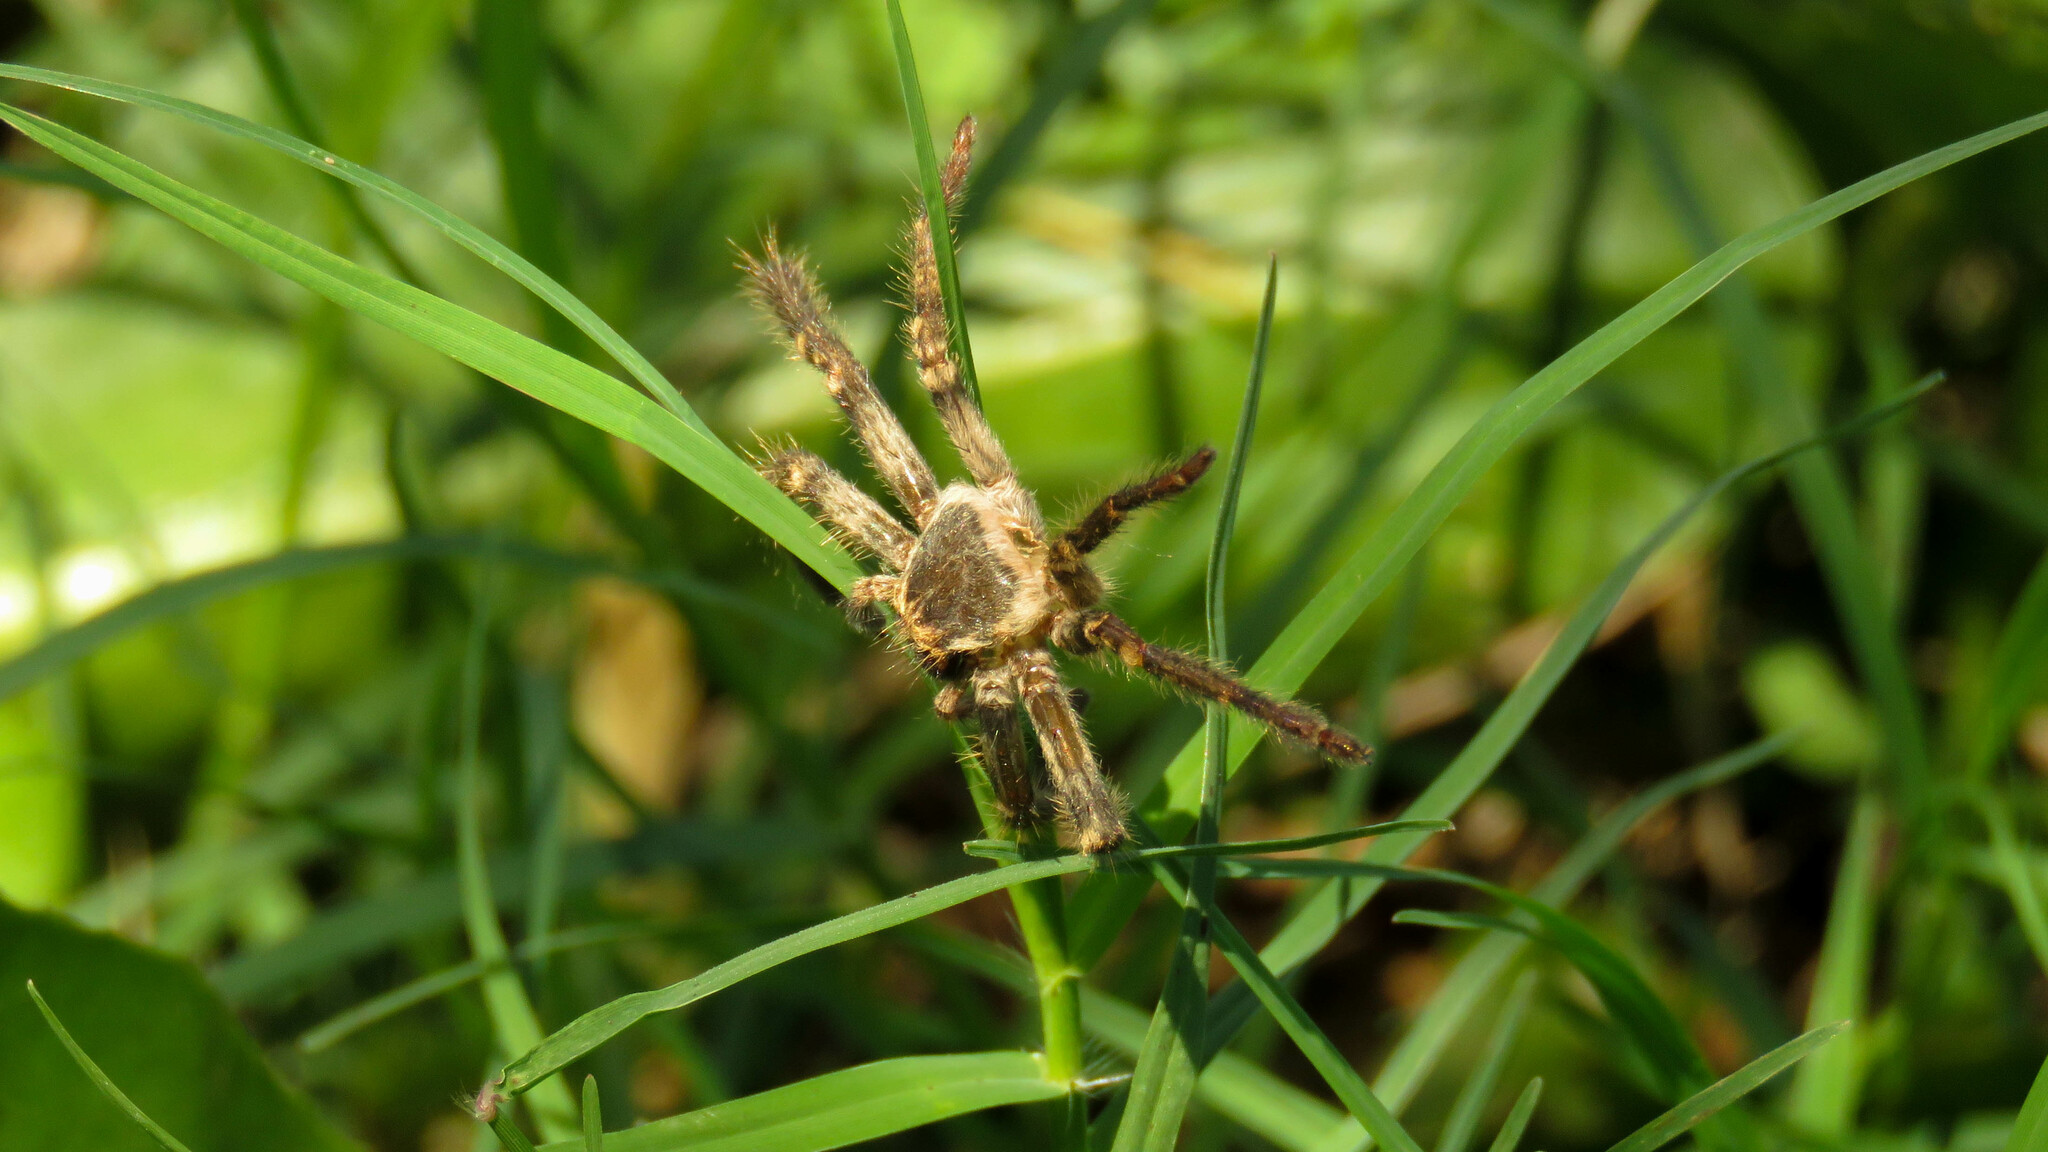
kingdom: Animalia
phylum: Arthropoda
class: Arachnida
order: Araneae
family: Sparassidae
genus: Polybetes
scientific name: Polybetes pythagoricus
